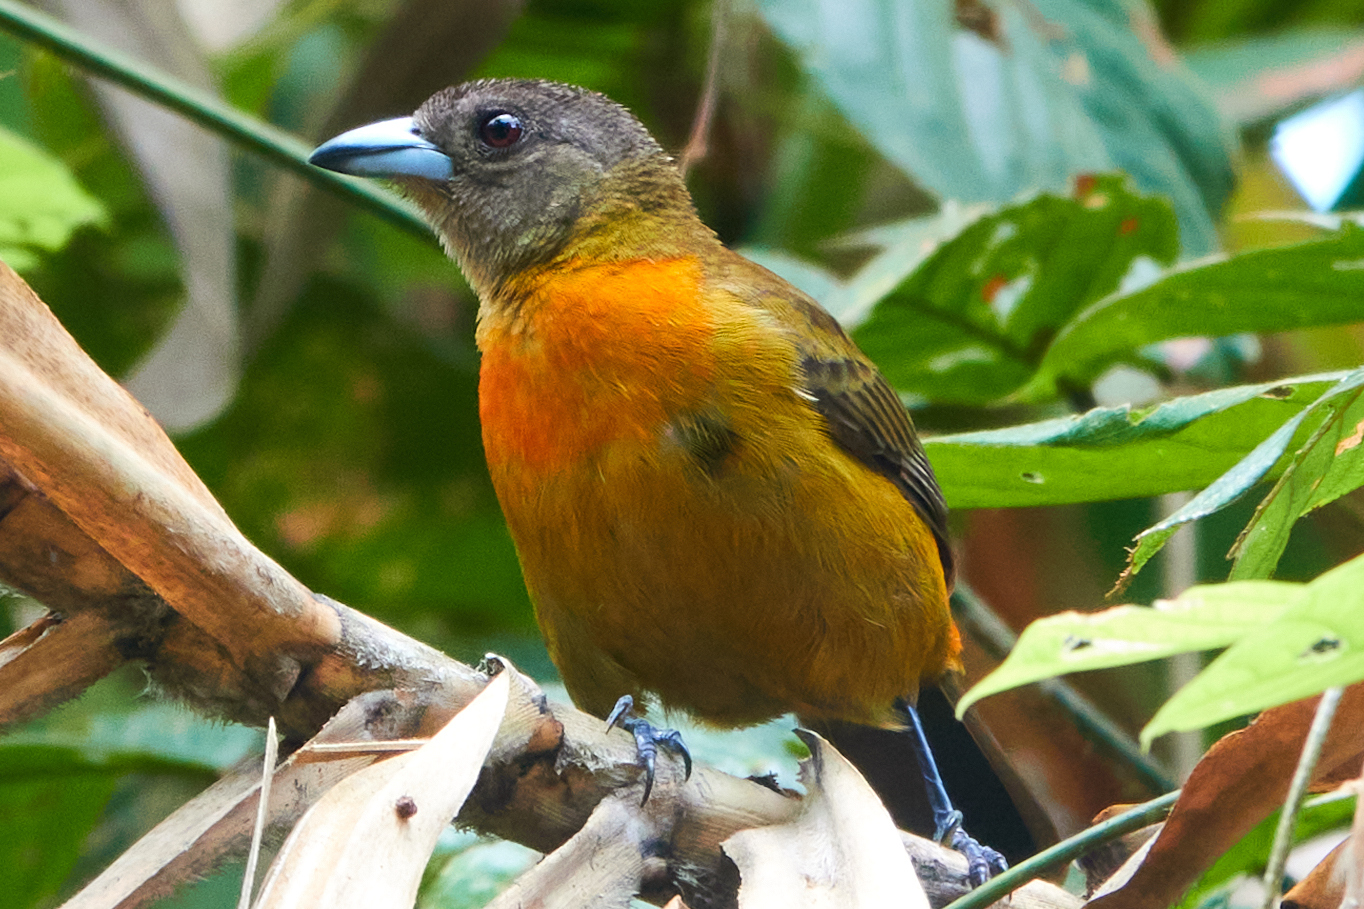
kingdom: Animalia
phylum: Chordata
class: Aves
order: Passeriformes
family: Thraupidae
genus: Ramphocelus
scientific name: Ramphocelus passerinii
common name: Passerini's tanager
